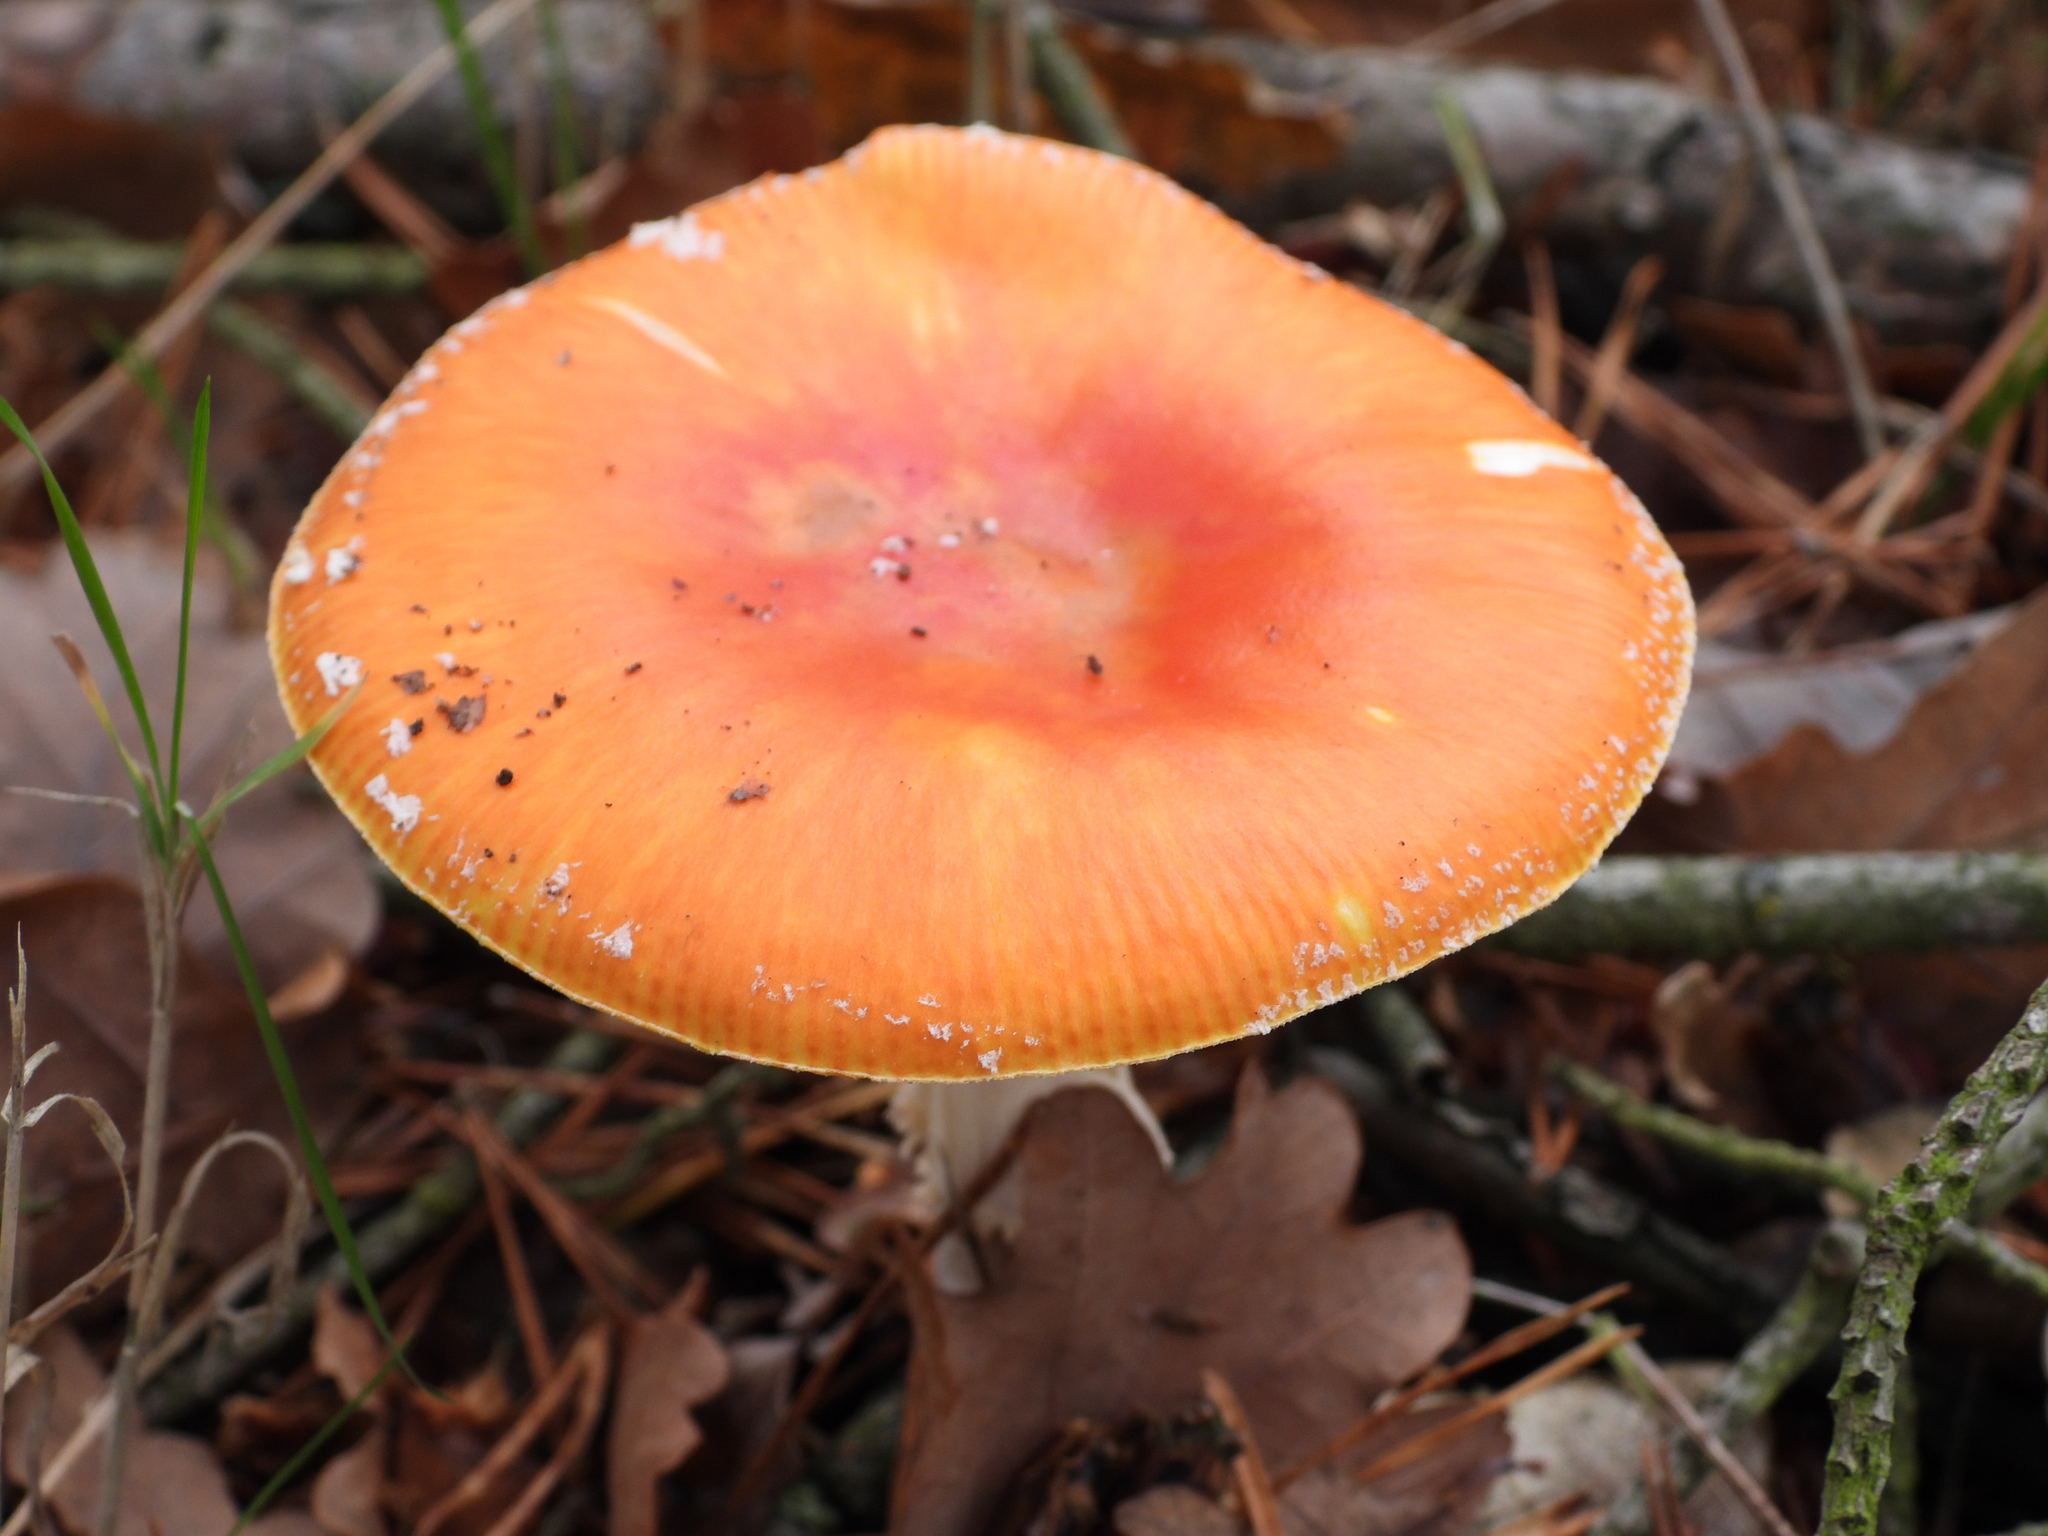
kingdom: Fungi
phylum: Basidiomycota
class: Agaricomycetes
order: Agaricales
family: Amanitaceae
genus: Amanita
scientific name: Amanita muscaria
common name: Fly agaric
